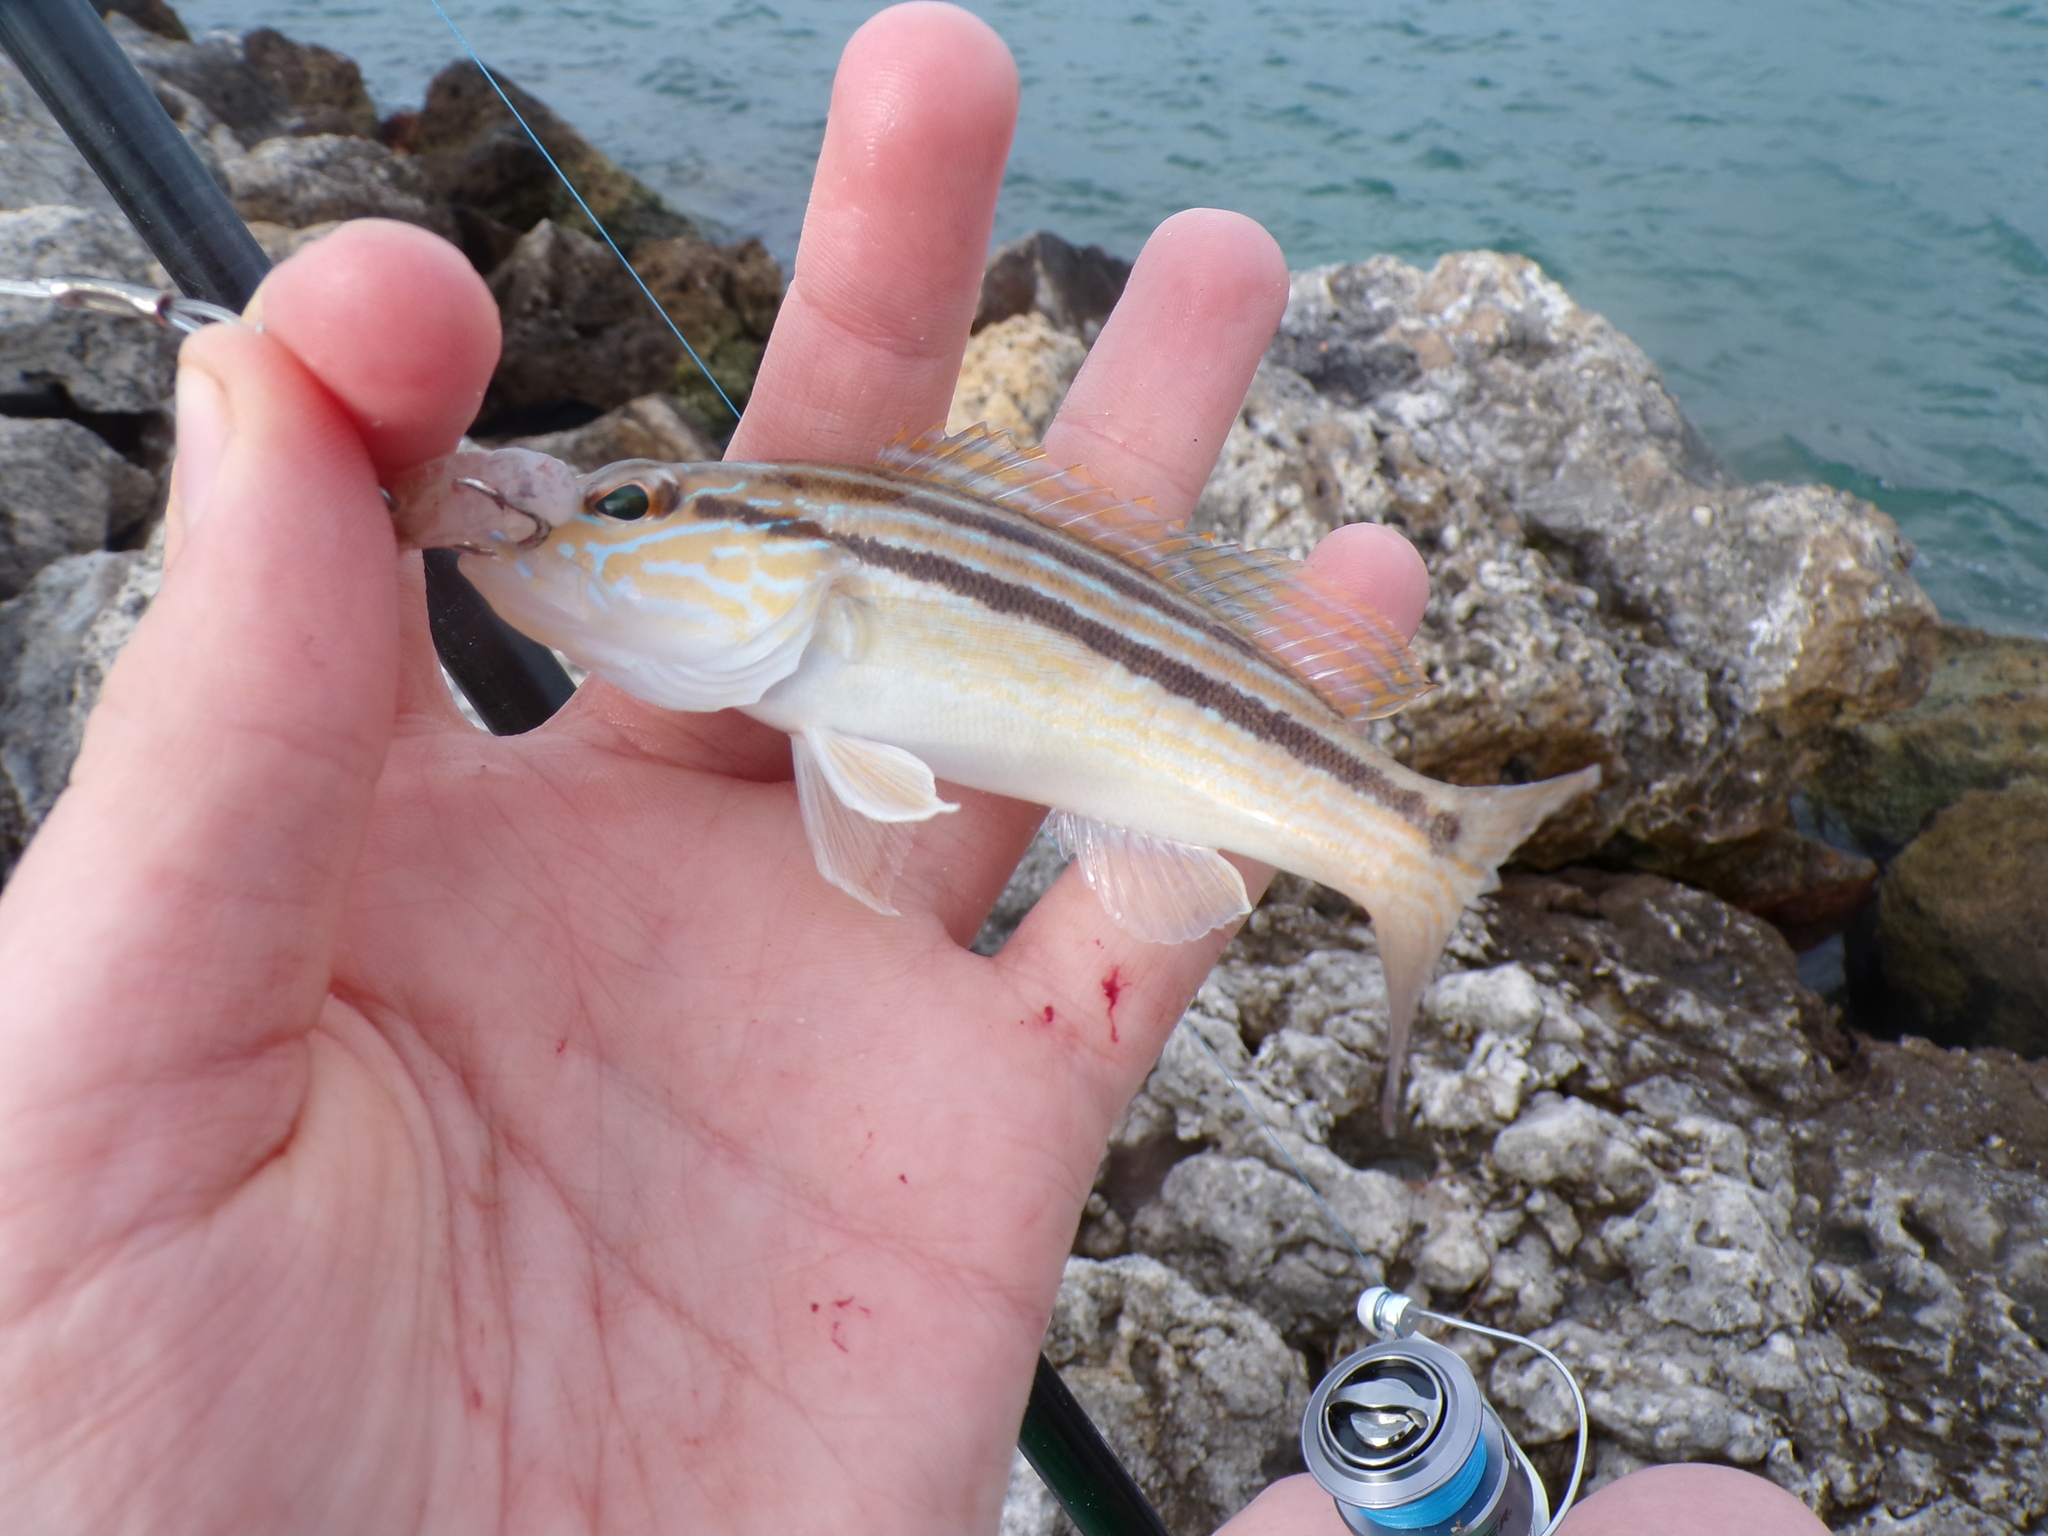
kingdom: Animalia
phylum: Chordata
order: Perciformes
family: Serranidae
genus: Diplectrum
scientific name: Diplectrum formosum
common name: Sand perch
